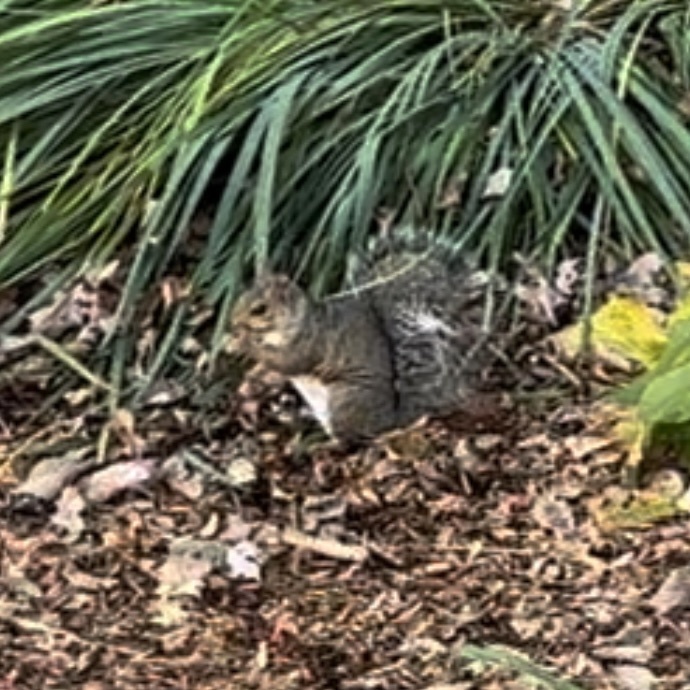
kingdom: Animalia
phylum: Chordata
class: Mammalia
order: Rodentia
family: Sciuridae
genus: Sciurus
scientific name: Sciurus carolinensis
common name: Eastern gray squirrel
